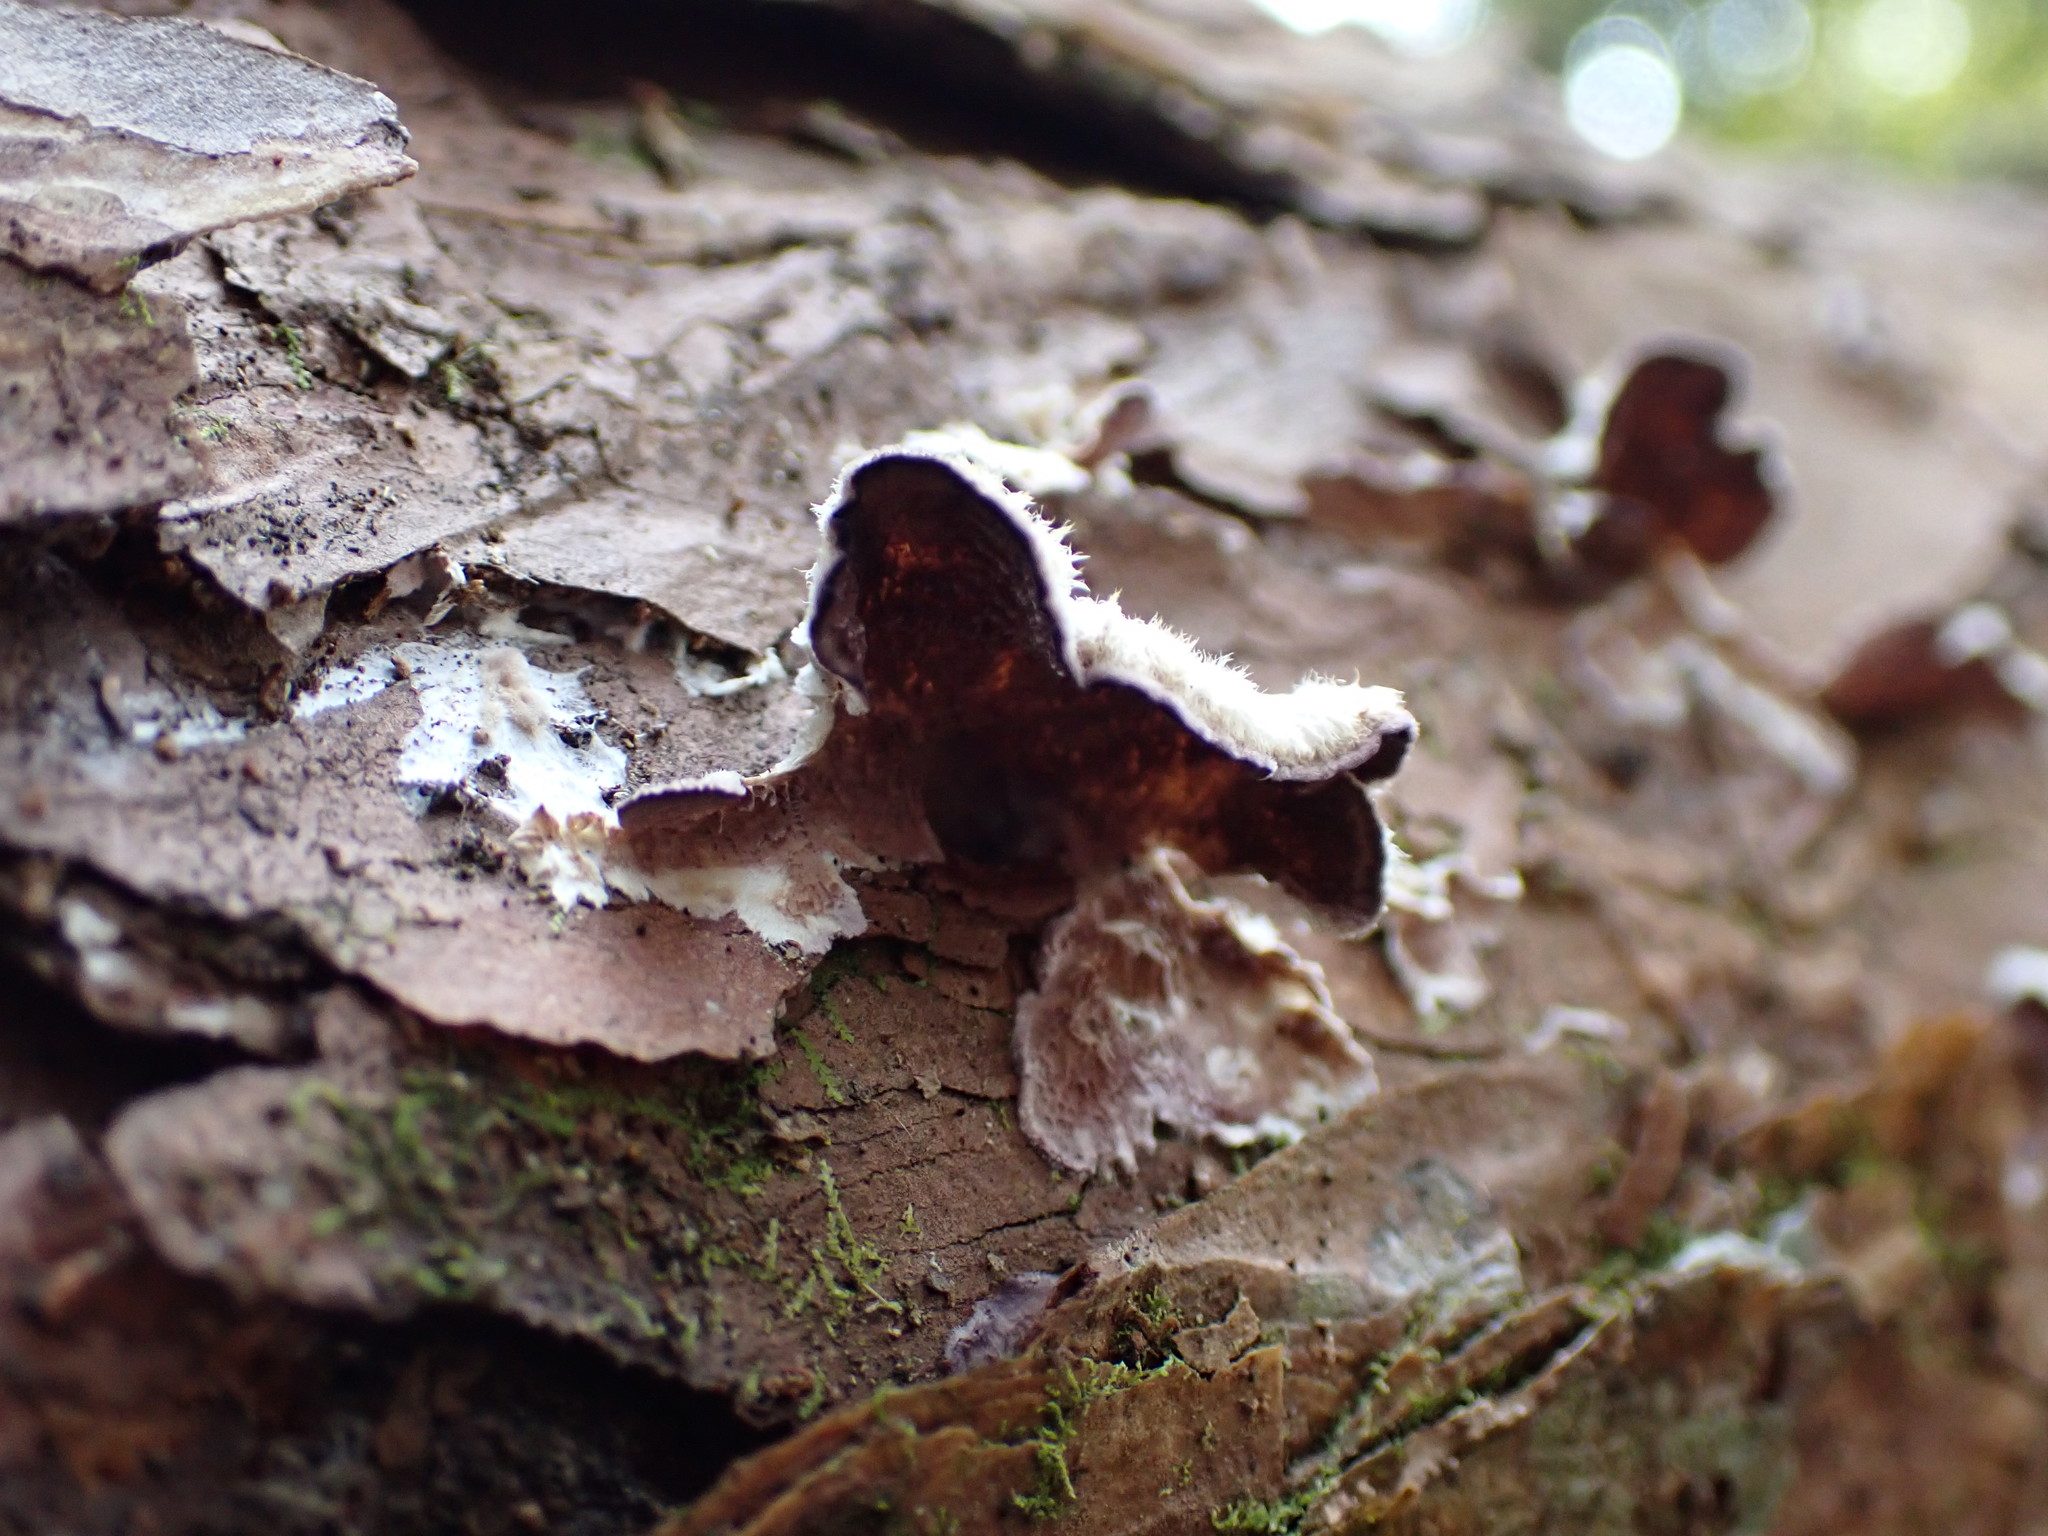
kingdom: Fungi
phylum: Basidiomycota
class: Agaricomycetes
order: Agaricales
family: Schizophyllaceae
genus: Schizophyllum
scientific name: Schizophyllum commune
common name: Common porecrust
